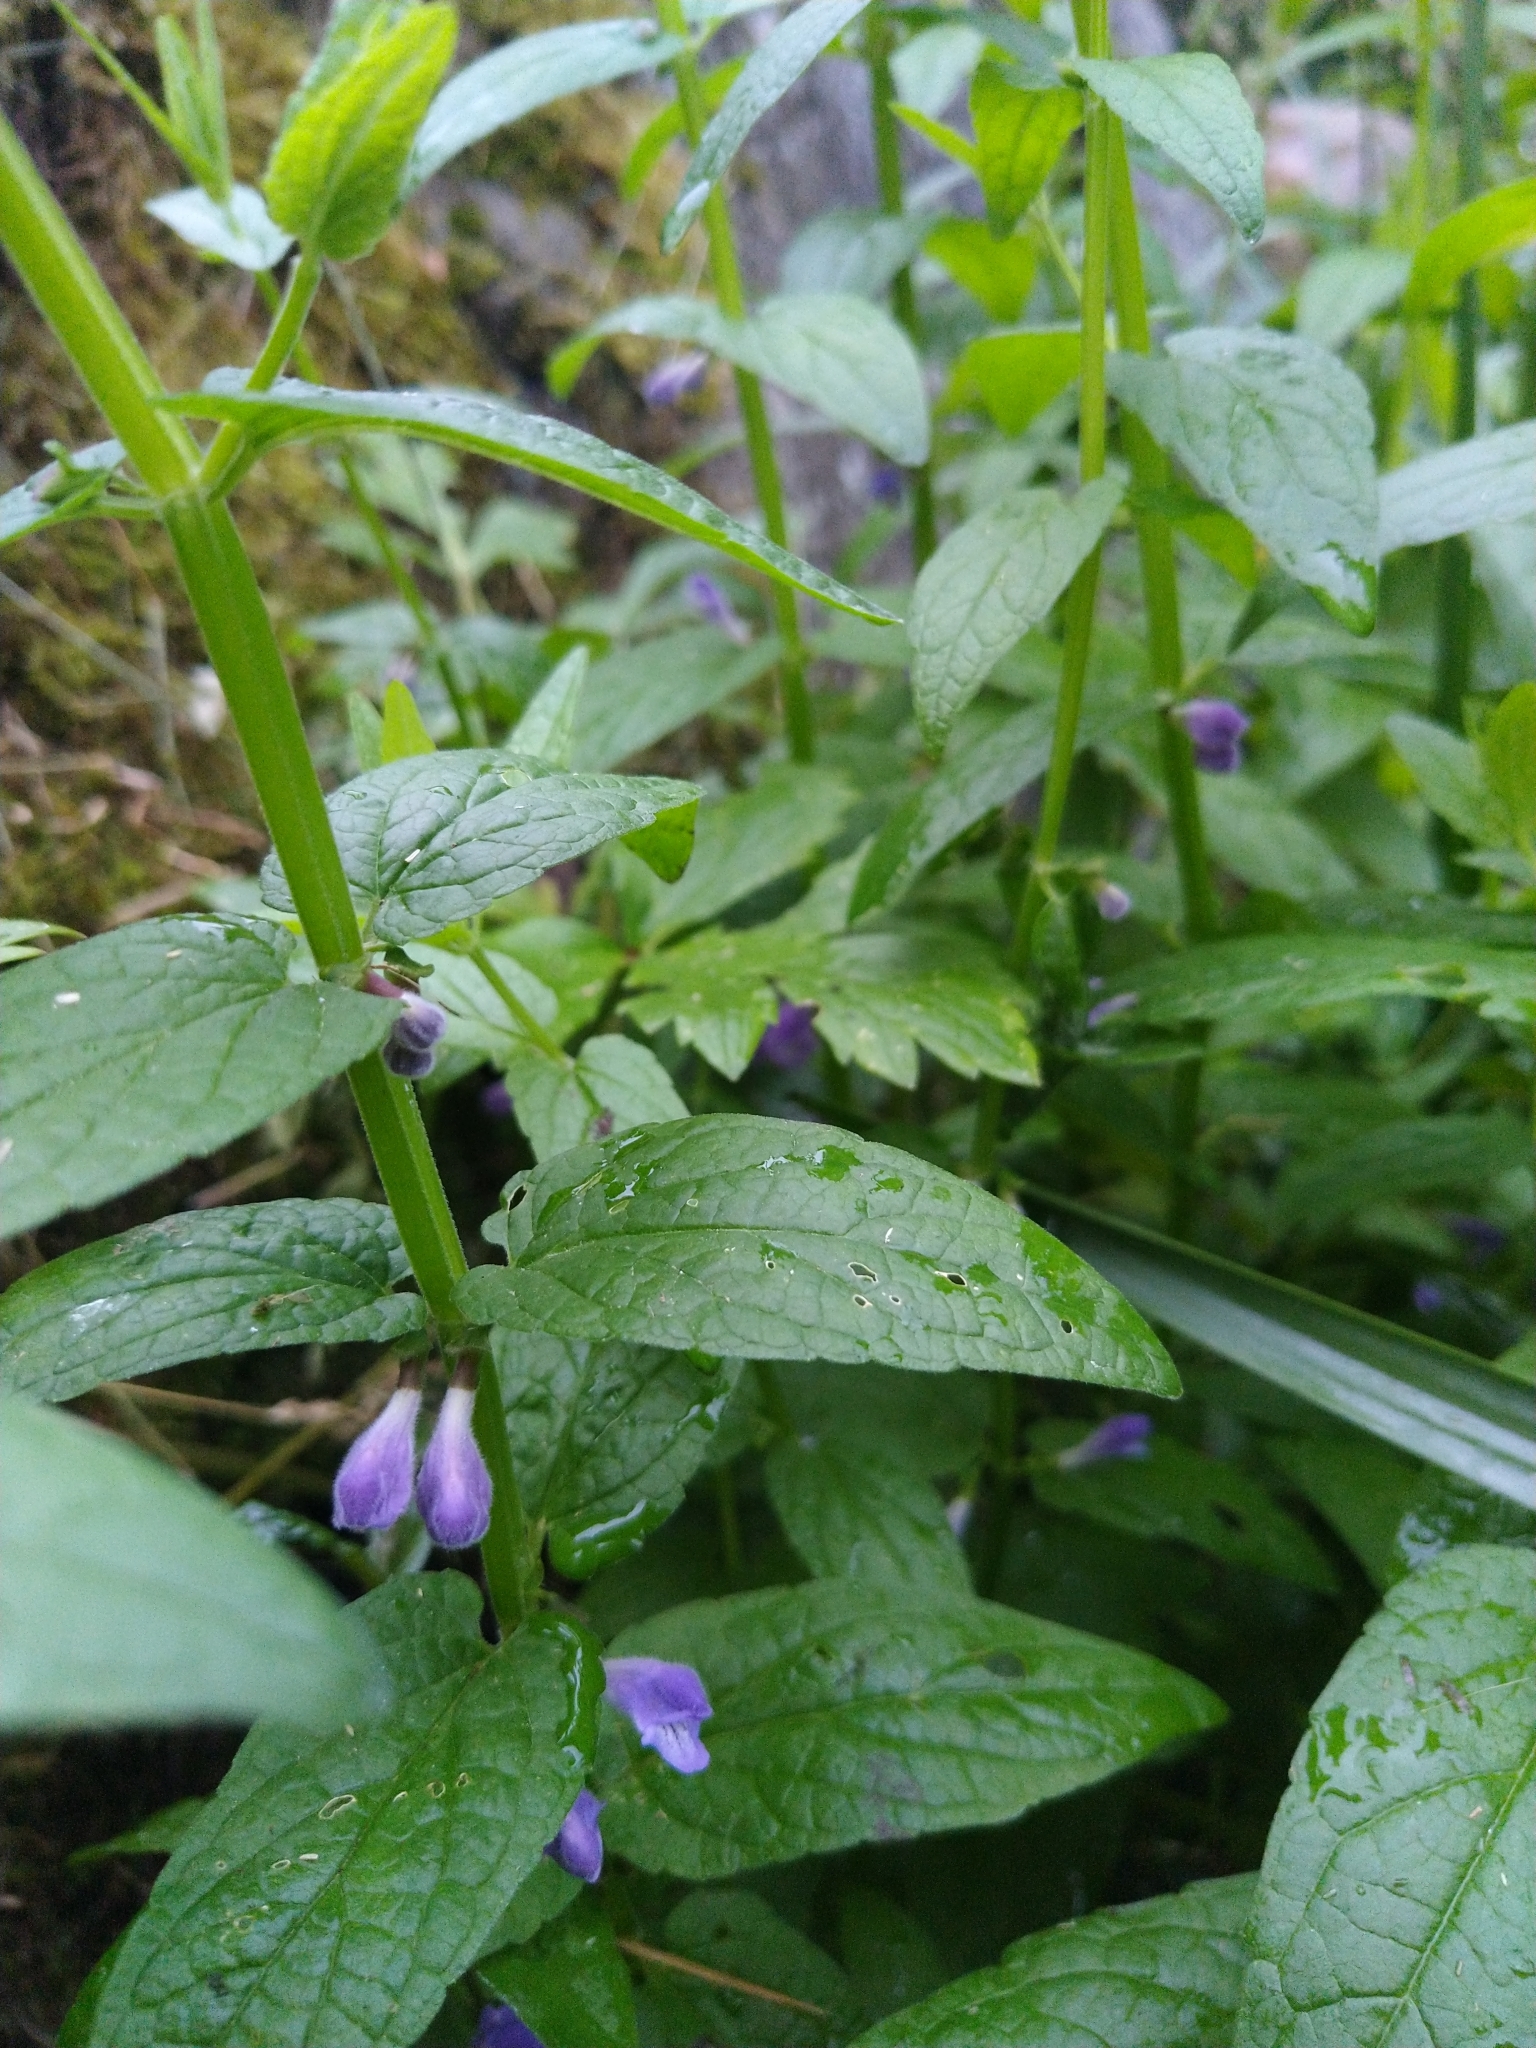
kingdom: Plantae
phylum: Tracheophyta
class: Magnoliopsida
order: Lamiales
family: Lamiaceae
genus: Scutellaria
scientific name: Scutellaria galericulata
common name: Skullcap
